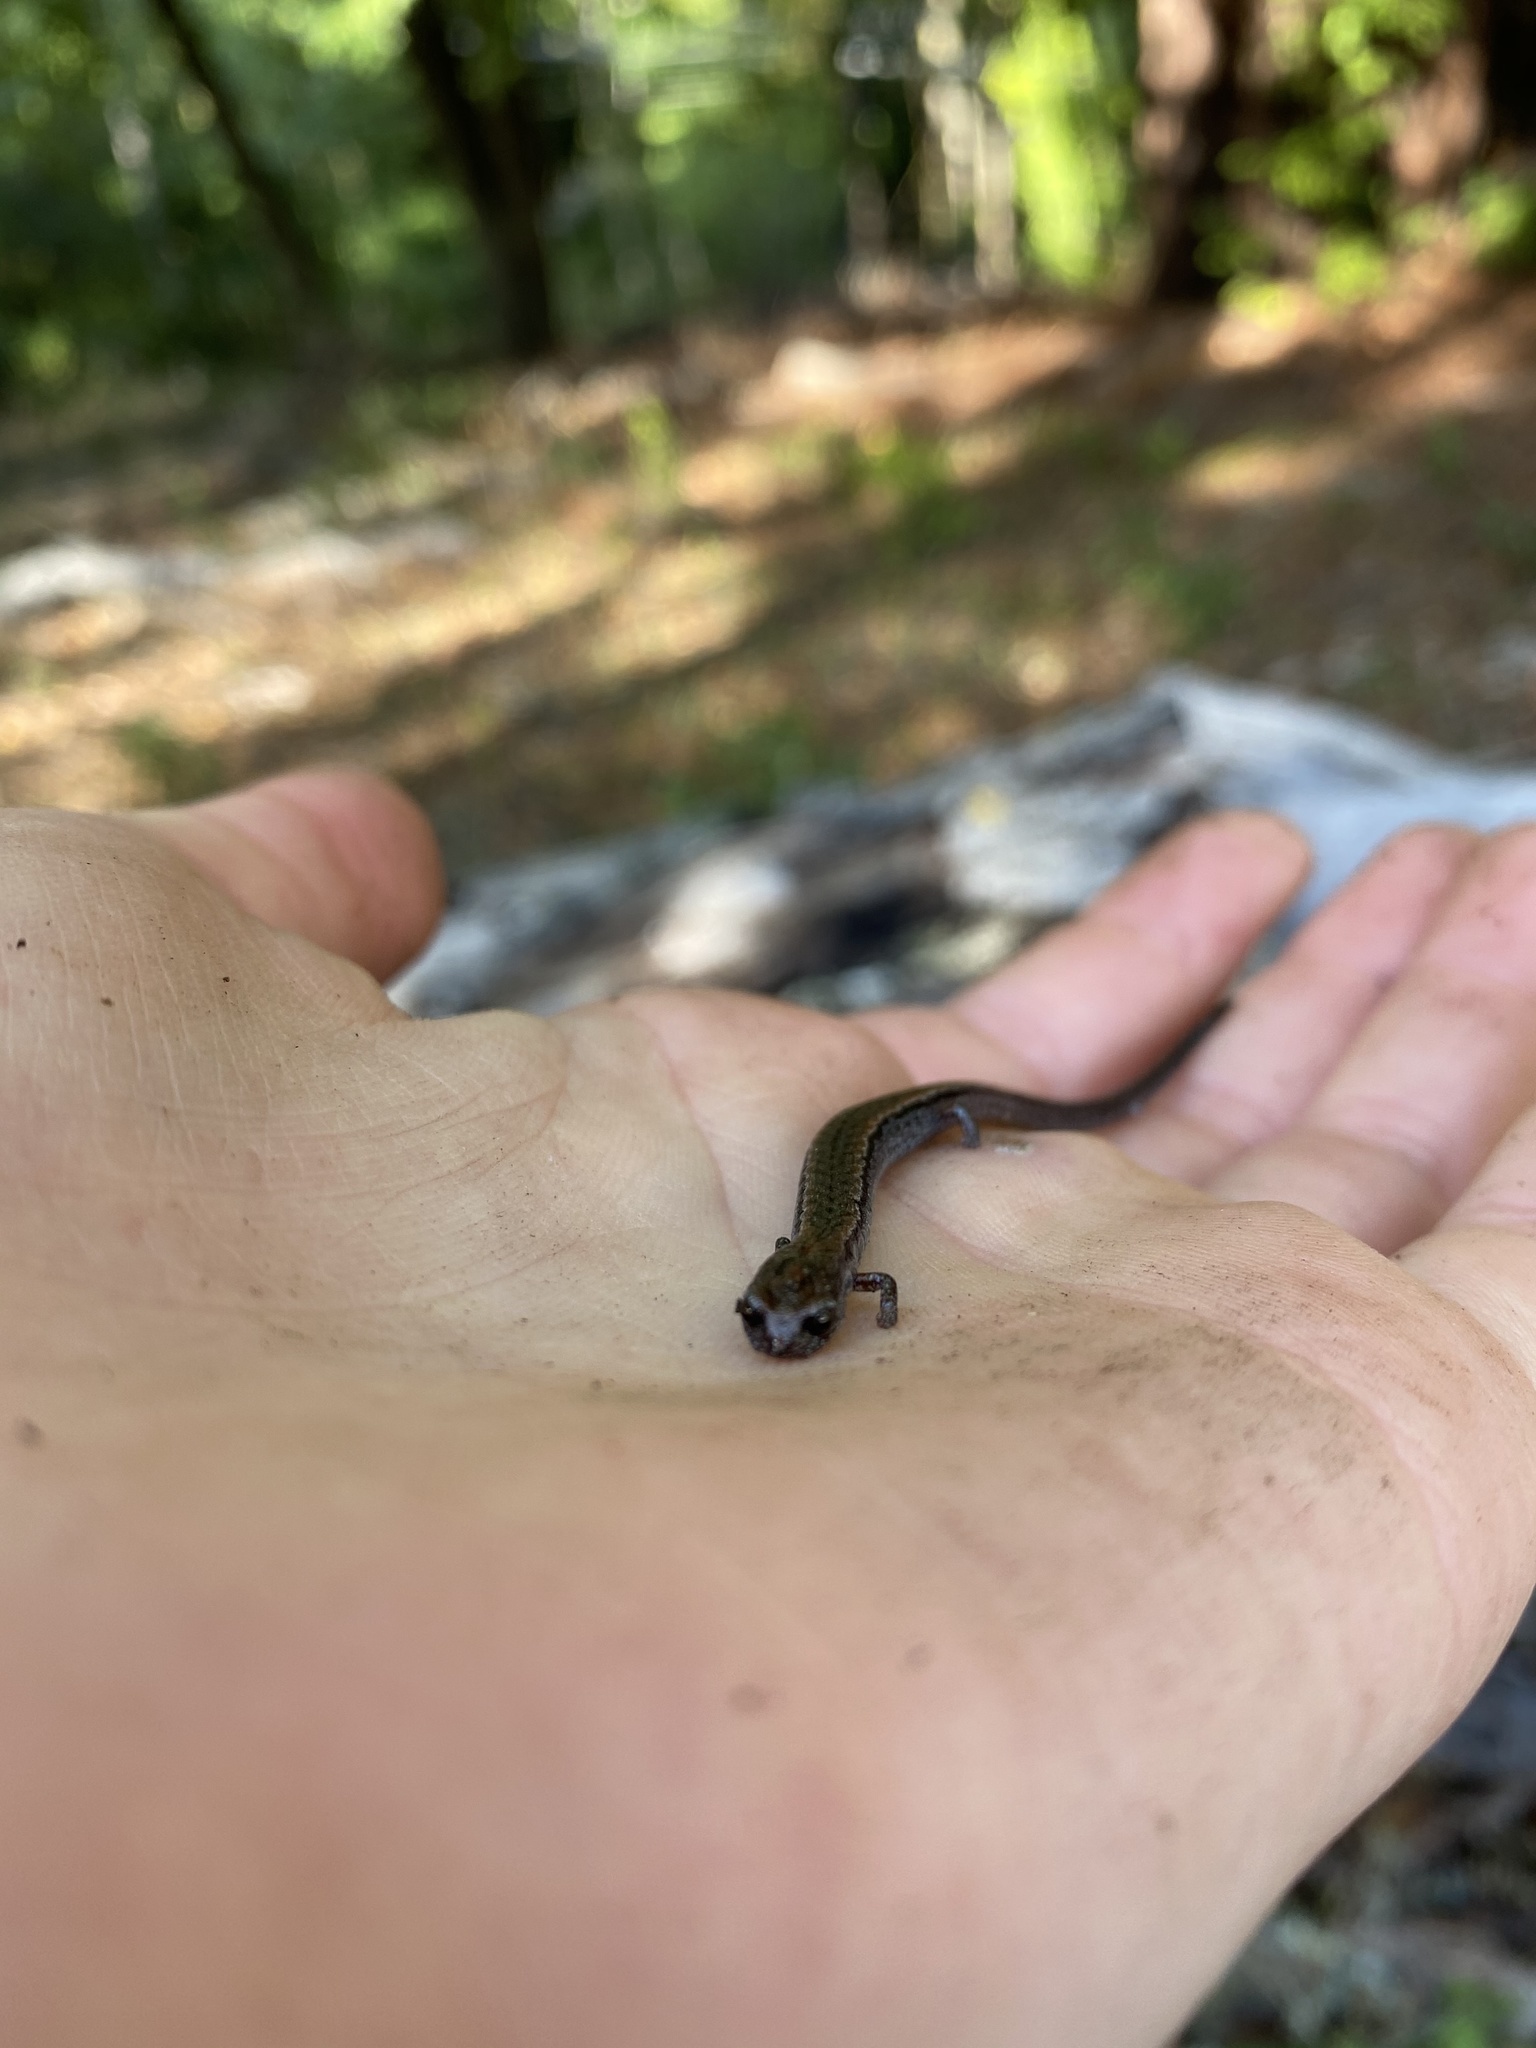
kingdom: Animalia
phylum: Chordata
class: Amphibia
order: Caudata
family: Plethodontidae
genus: Batrachoseps
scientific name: Batrachoseps attenuatus
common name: California slender salamander
